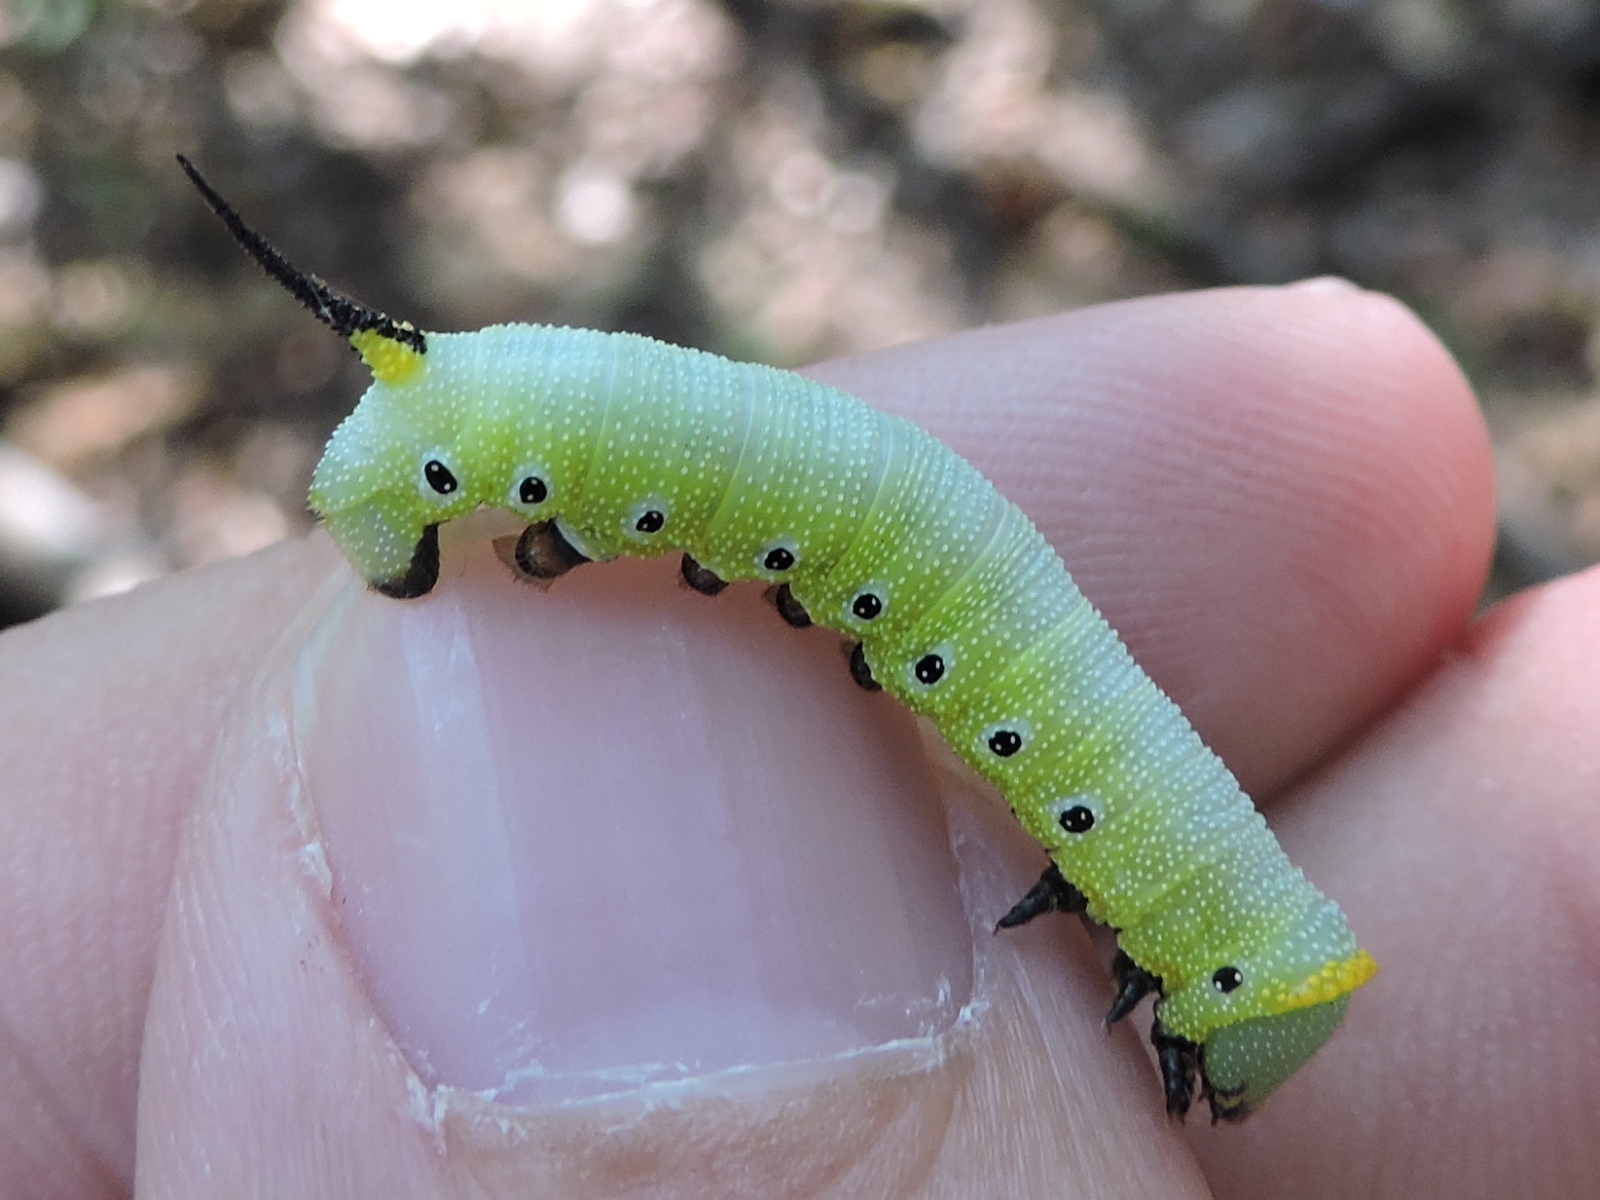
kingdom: Animalia
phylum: Arthropoda
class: Insecta
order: Lepidoptera
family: Sphingidae
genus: Hemaris
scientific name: Hemaris diffinis
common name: Bumblebee moth
